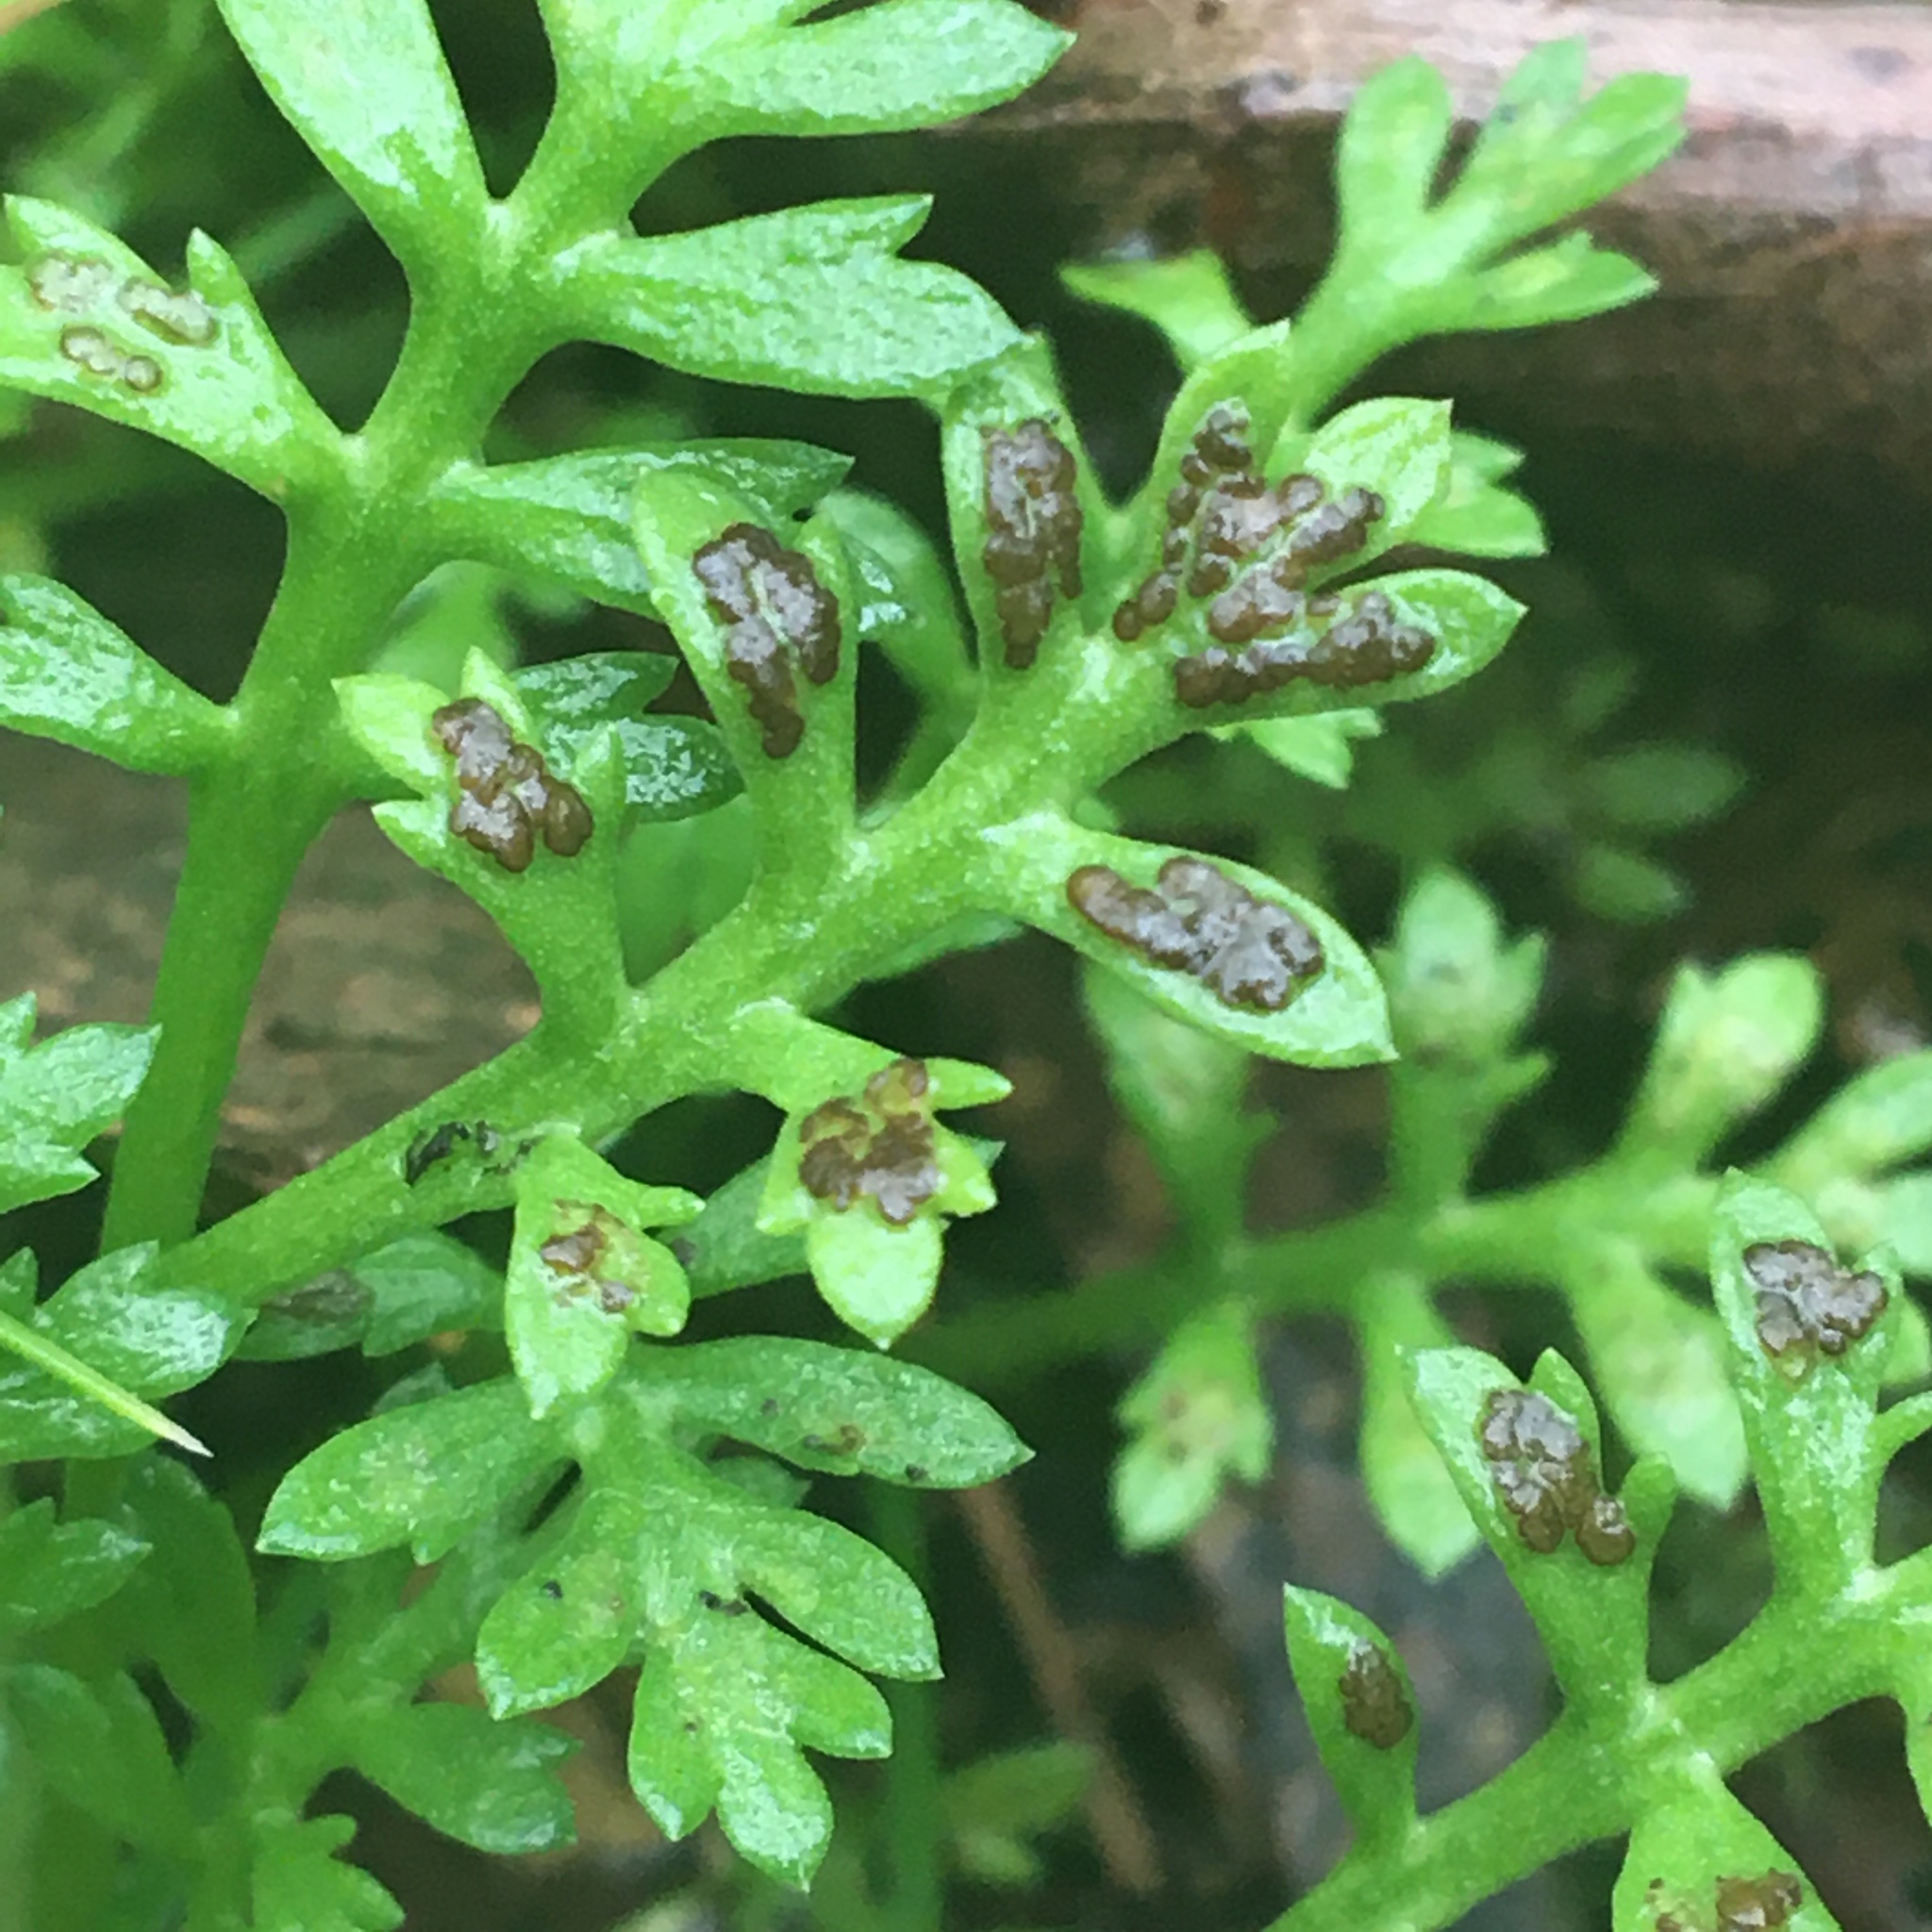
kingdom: Fungi
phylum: Ascomycota
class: Leotiomycetes
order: Helotiales
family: Drepanopezizaceae
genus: Fabraea
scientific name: Fabraea rhytismoidea
